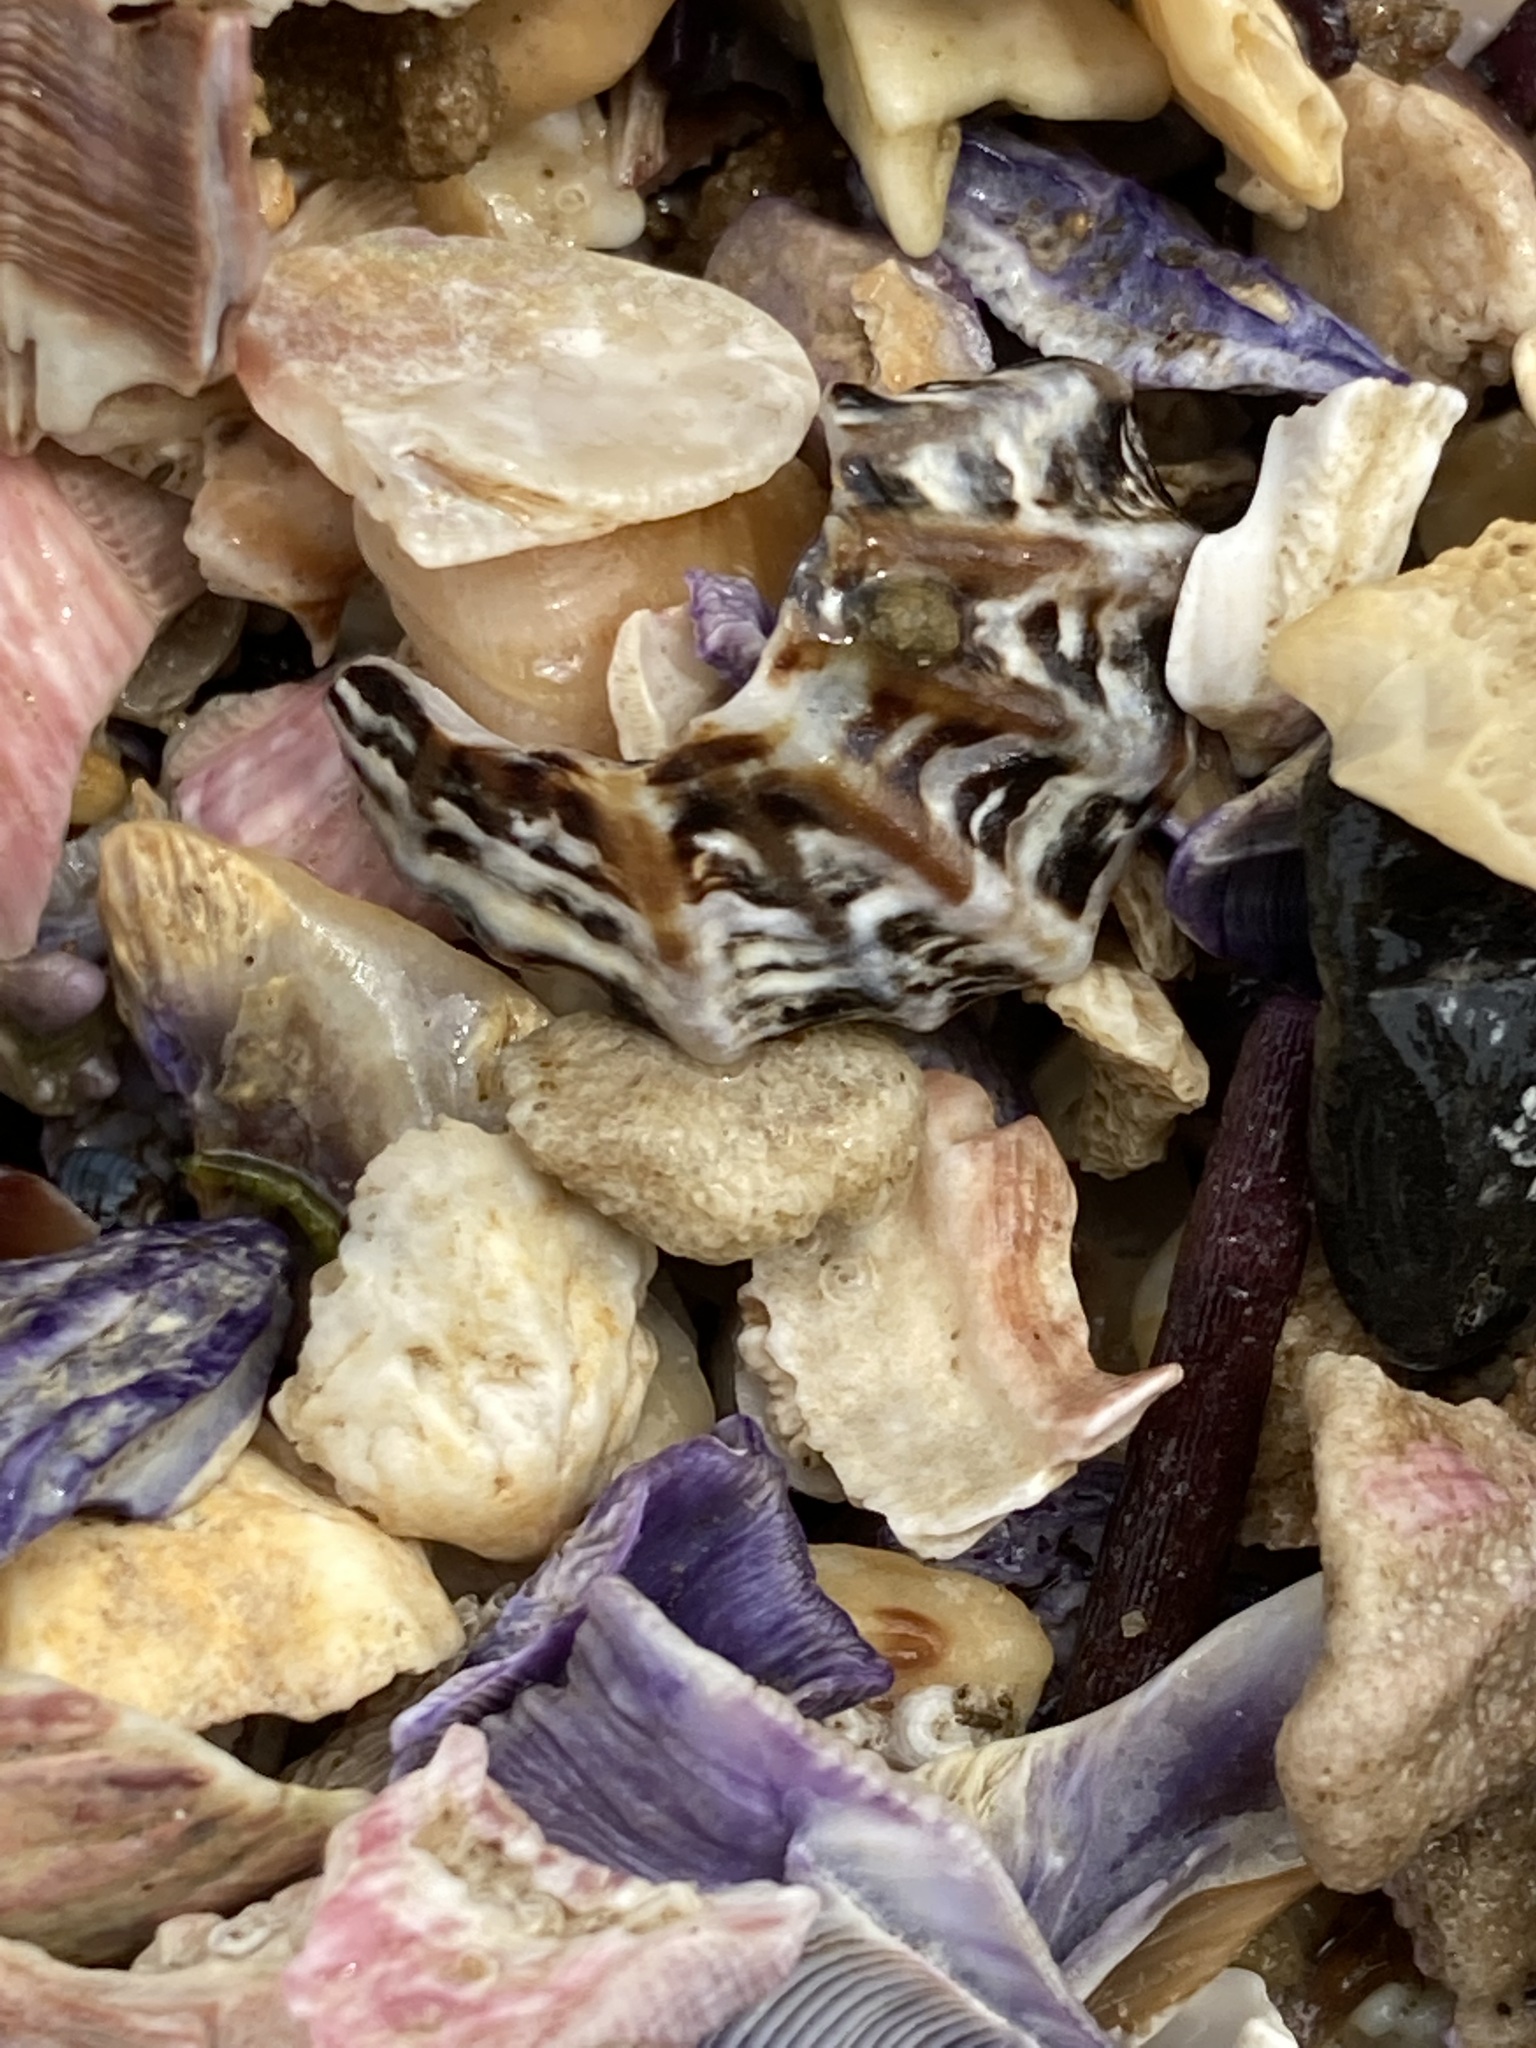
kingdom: Animalia
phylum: Mollusca
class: Gastropoda
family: Lottiidae
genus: Patelloida
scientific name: Patelloida alticostata
